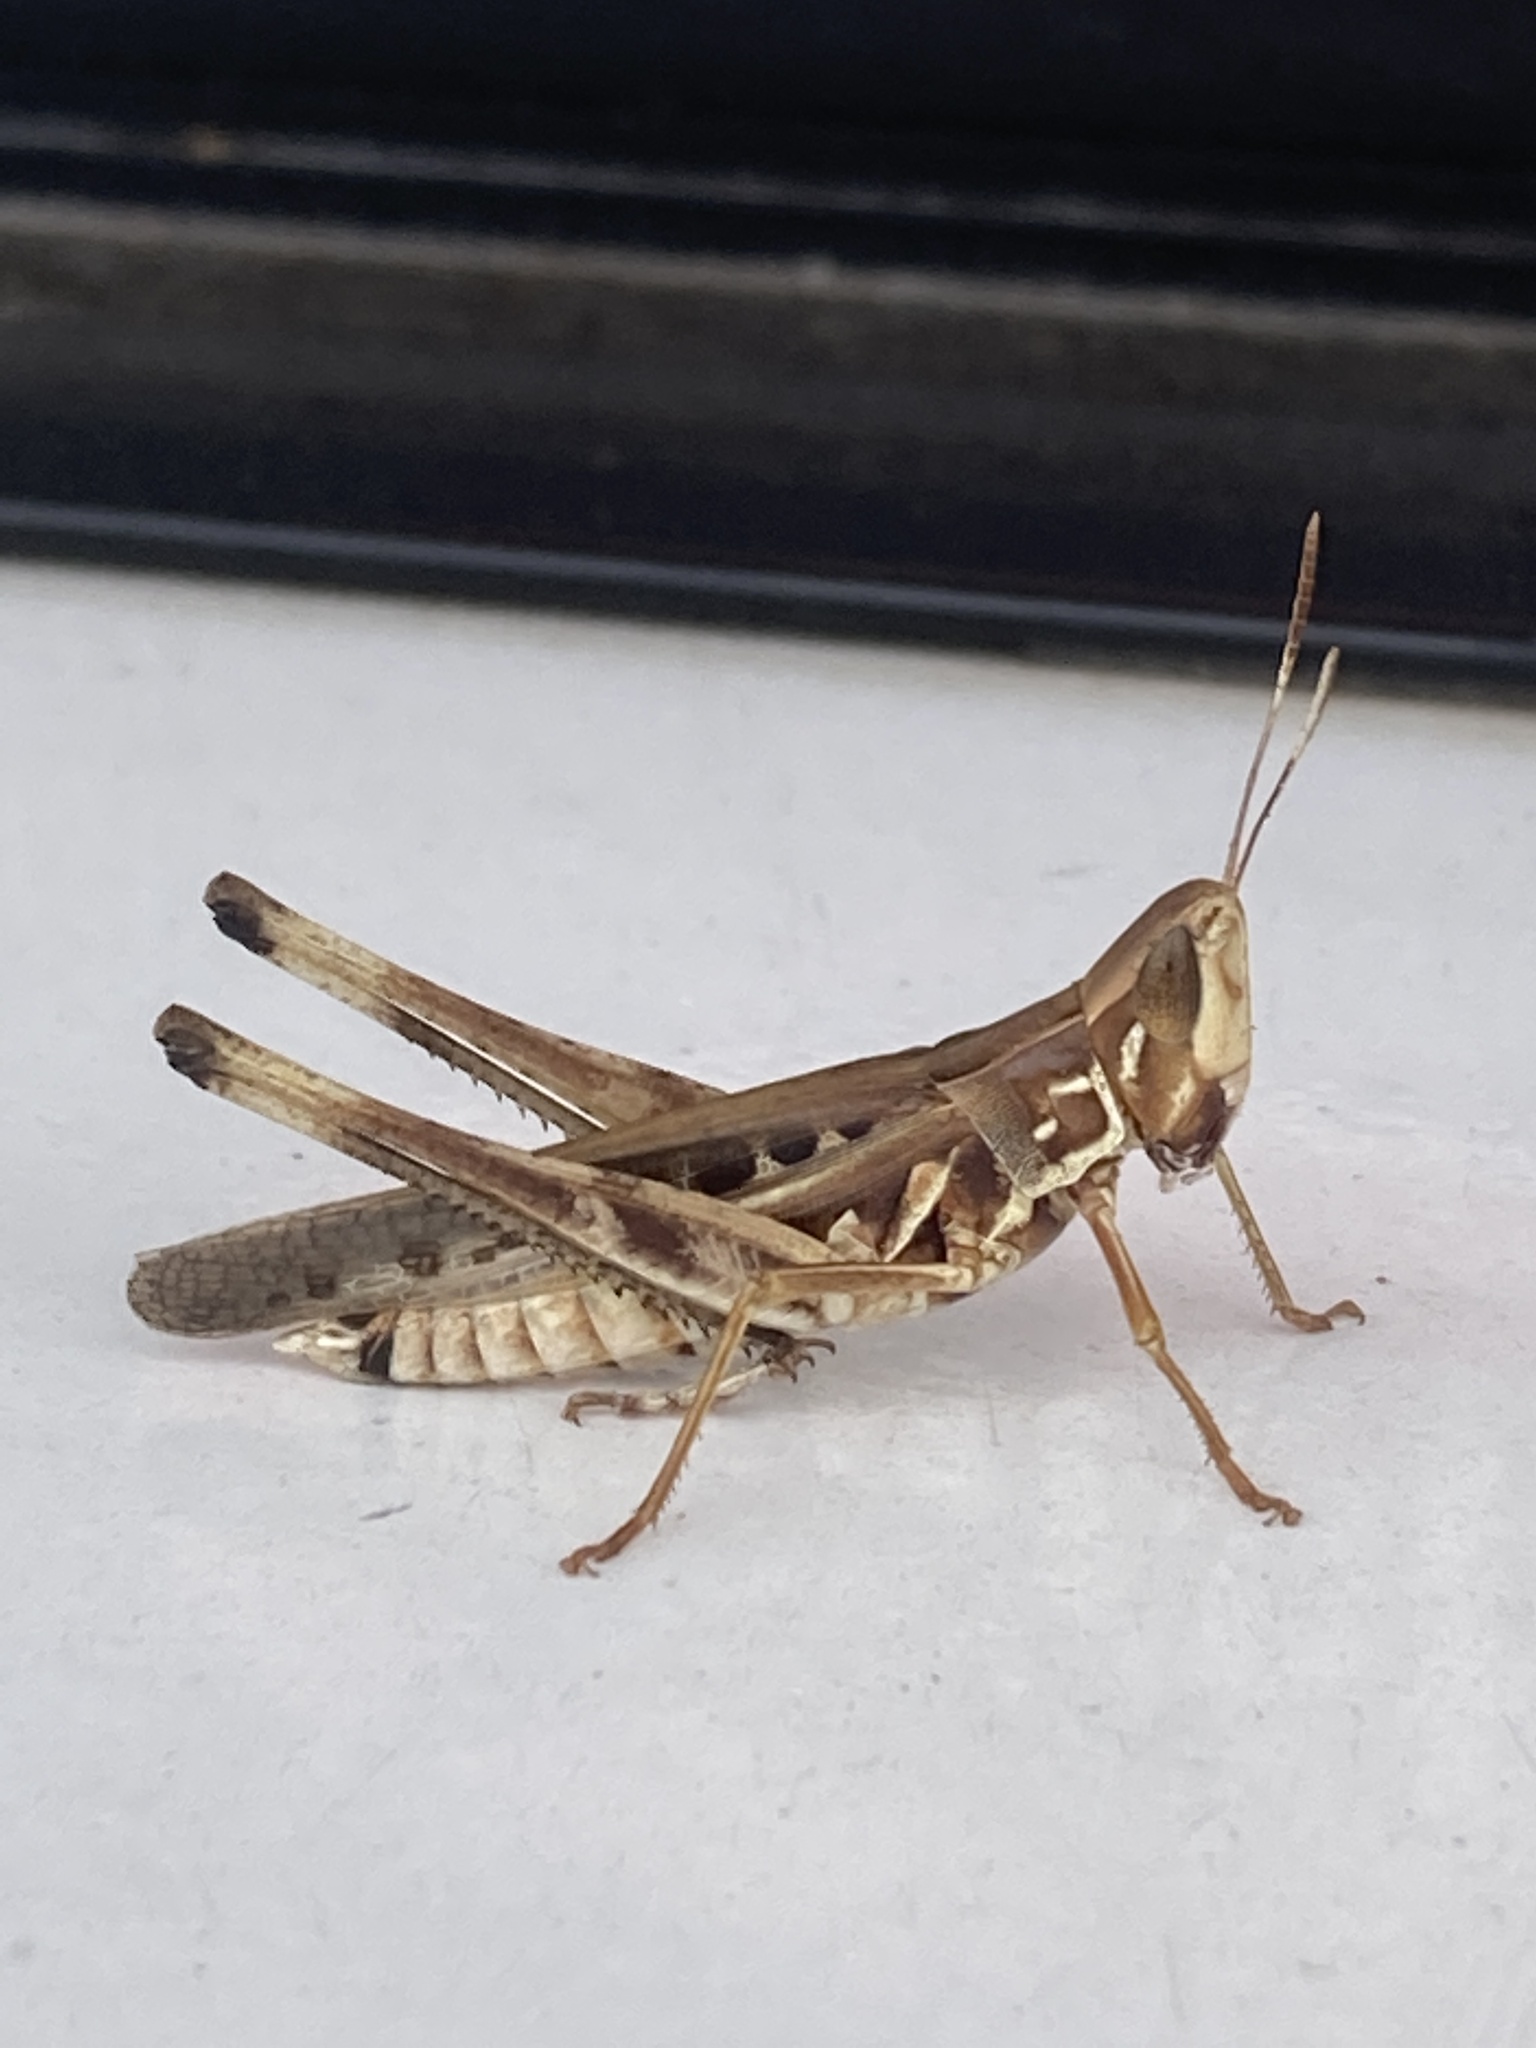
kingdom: Animalia
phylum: Arthropoda
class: Insecta
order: Orthoptera
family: Acrididae
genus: Syrbula
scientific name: Syrbula admirabilis
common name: Handsome grasshopper
